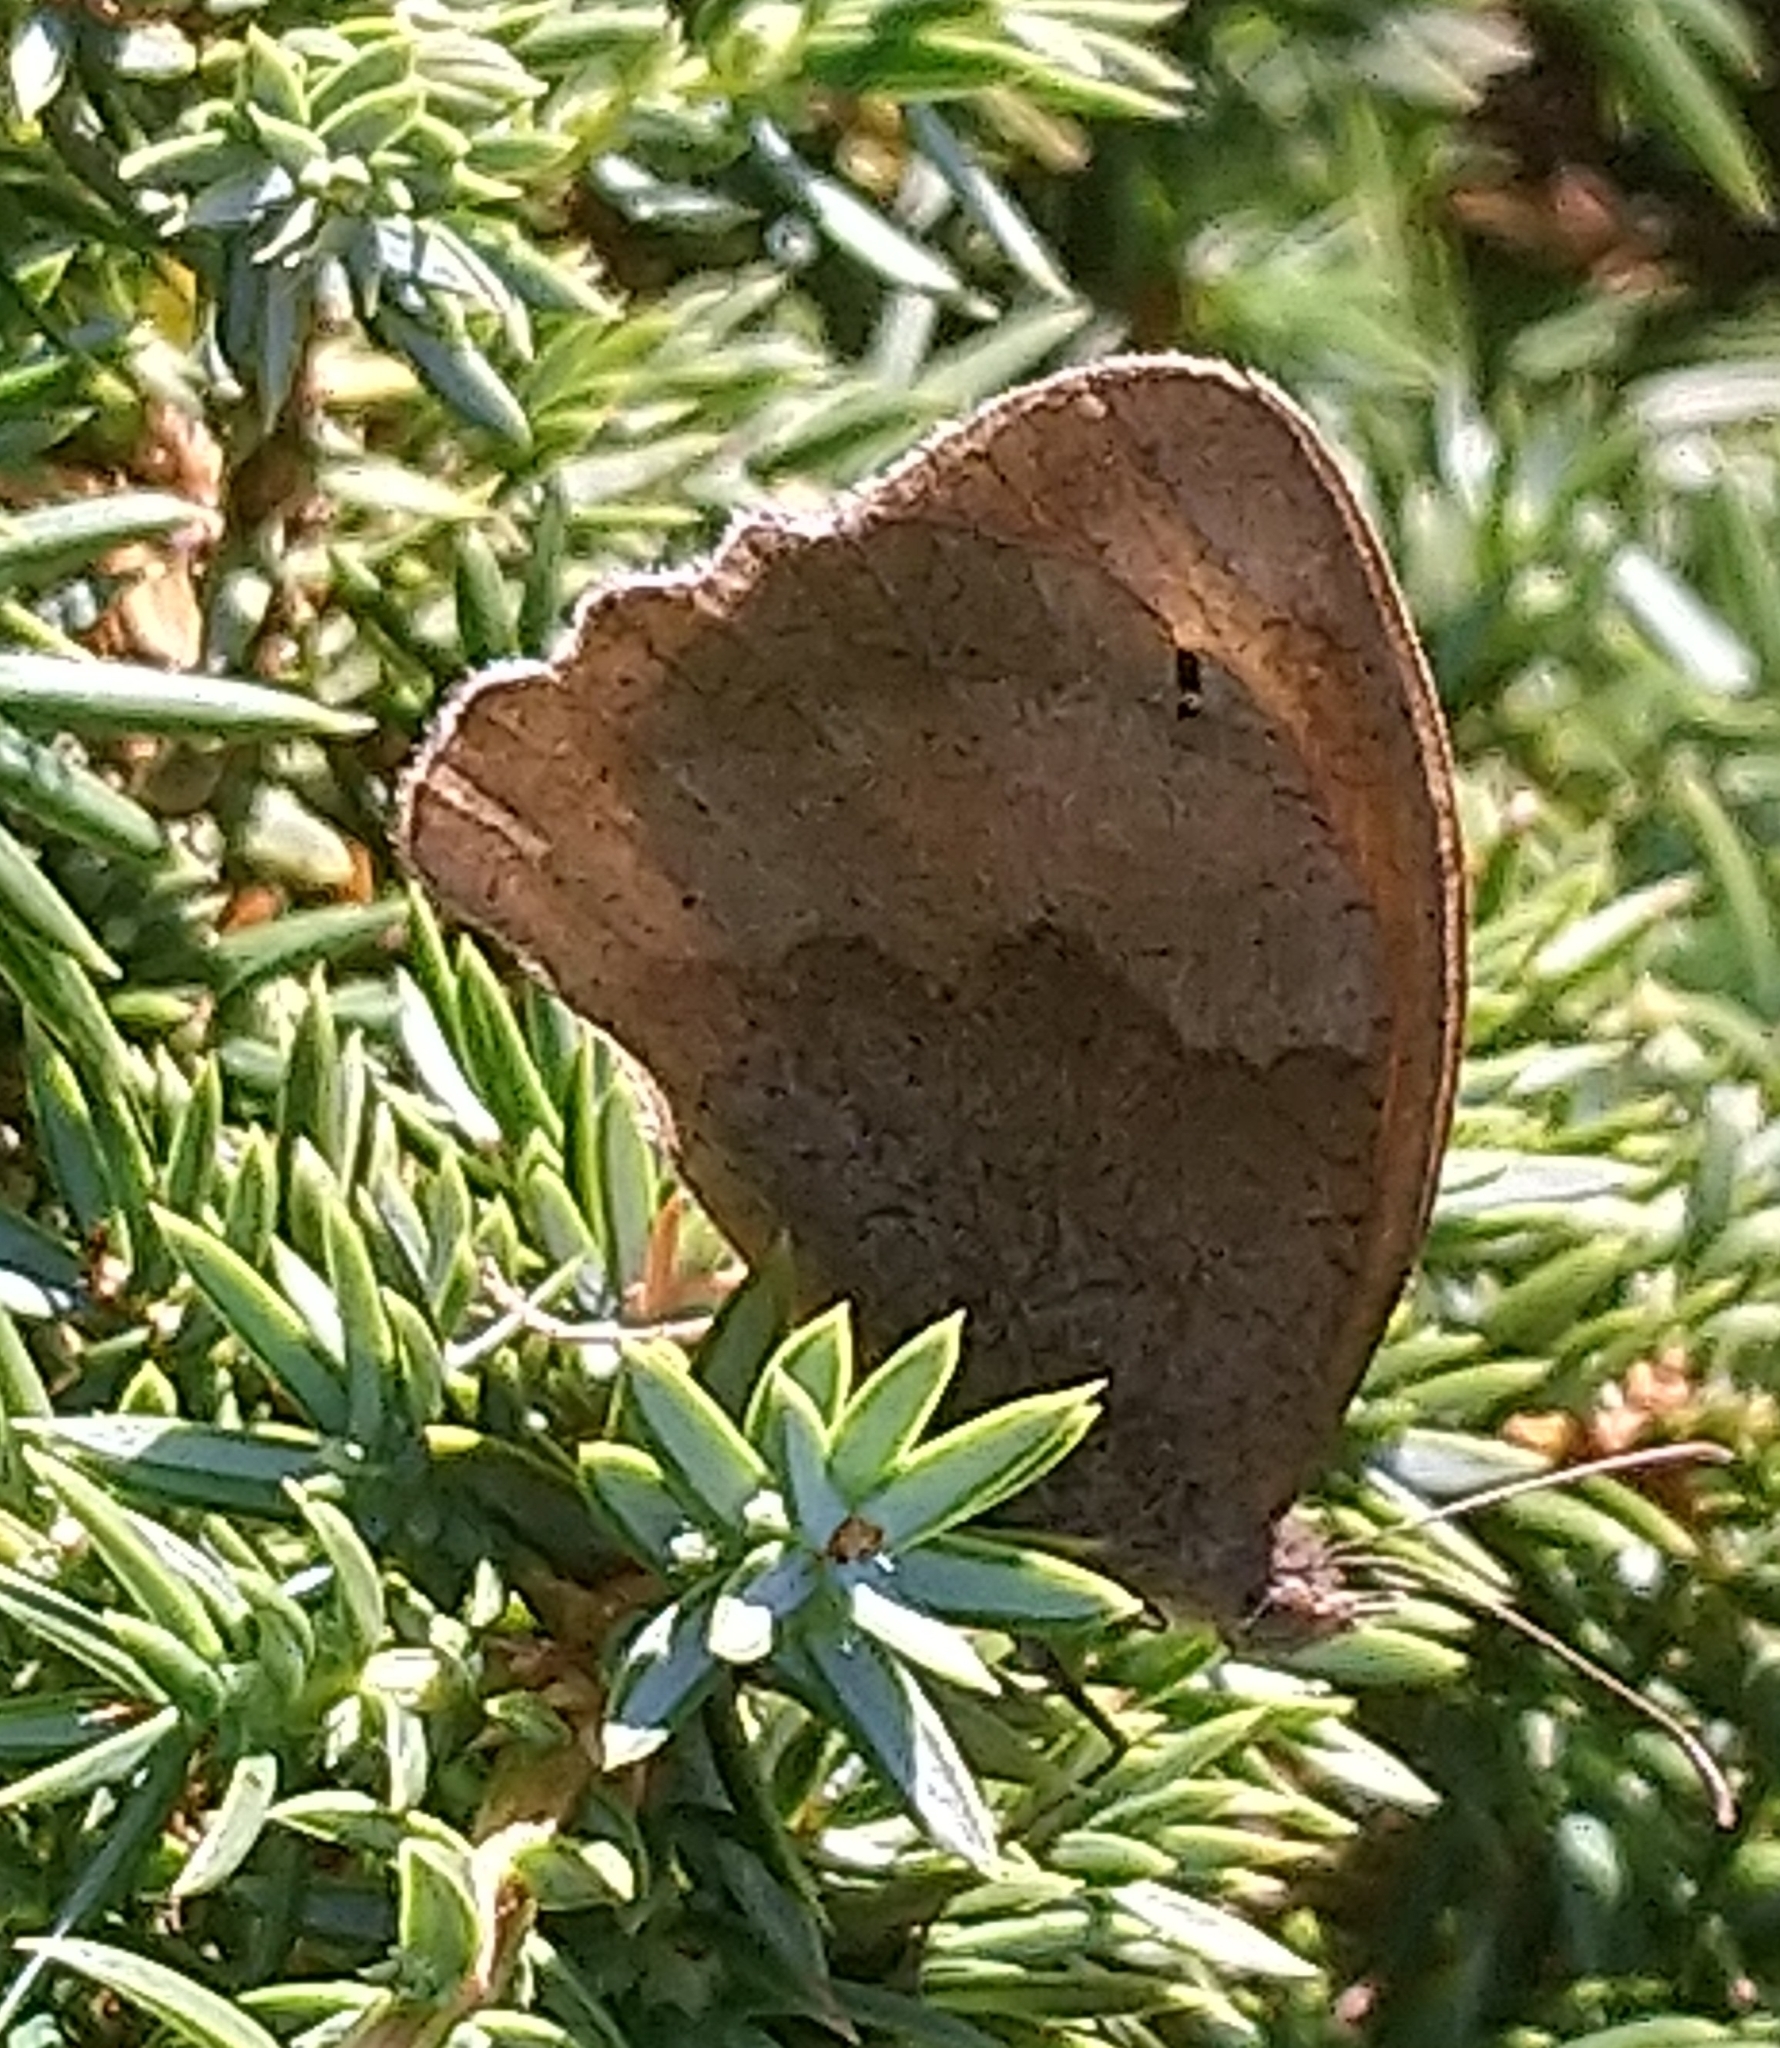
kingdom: Animalia
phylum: Arthropoda
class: Insecta
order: Lepidoptera
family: Nymphalidae
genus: Maniola
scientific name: Maniola jurtina
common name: Meadow brown
